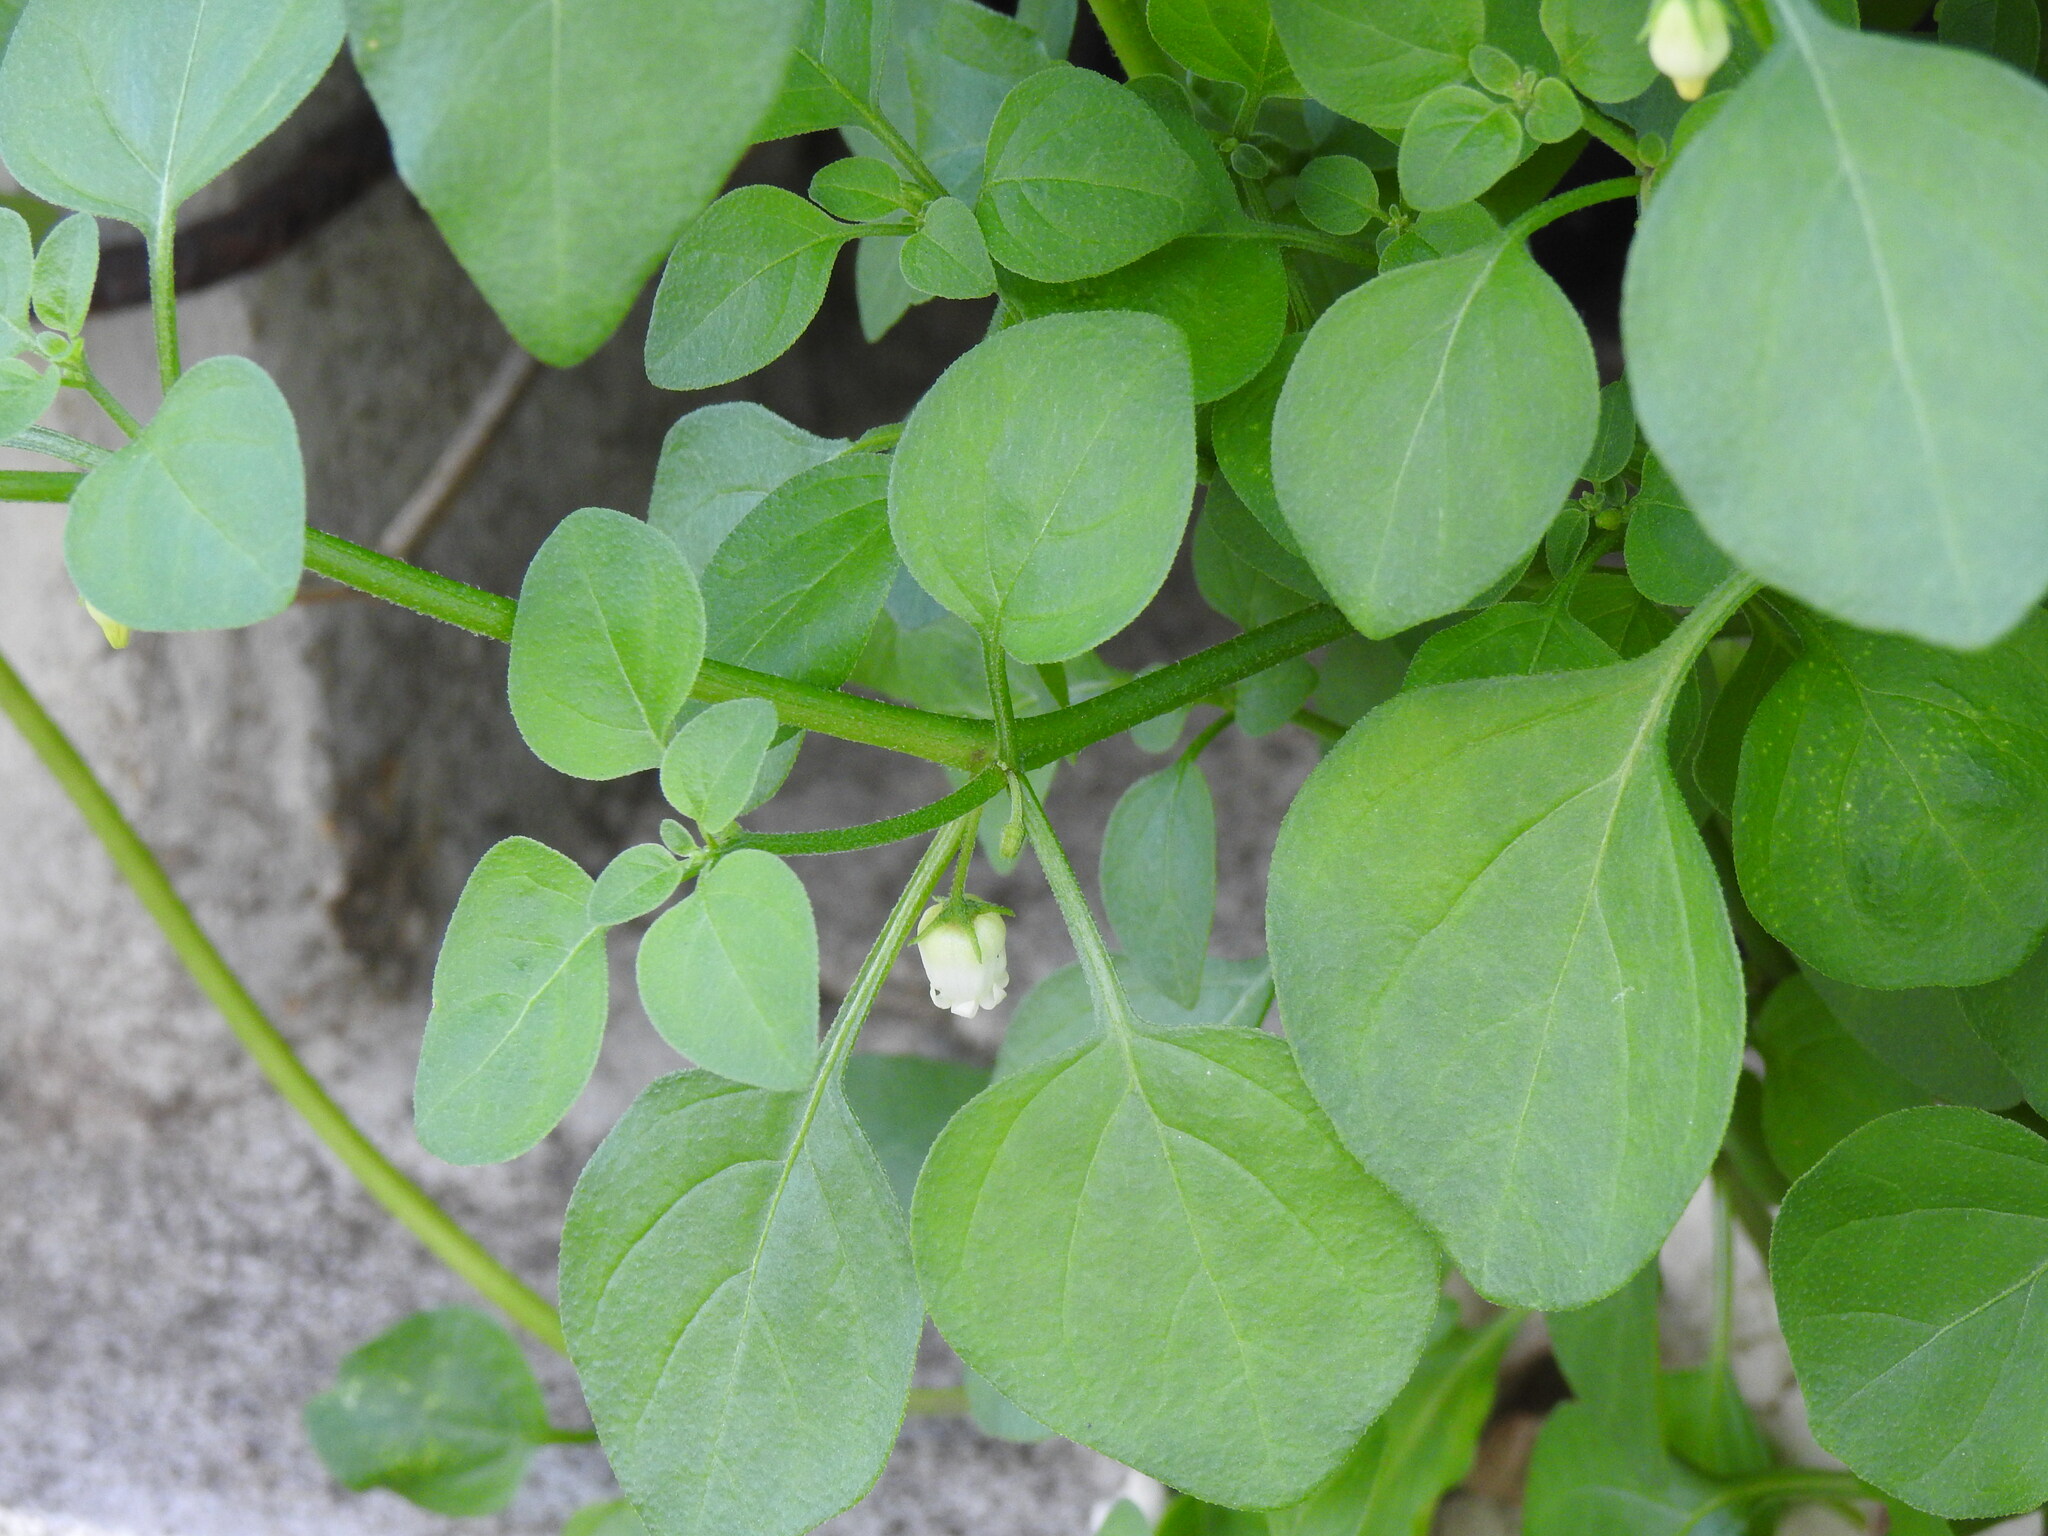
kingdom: Plantae
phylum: Tracheophyta
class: Magnoliopsida
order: Solanales
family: Solanaceae
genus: Salpichroa
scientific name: Salpichroa origanifolia
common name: Lily-of-the-valley-vine
